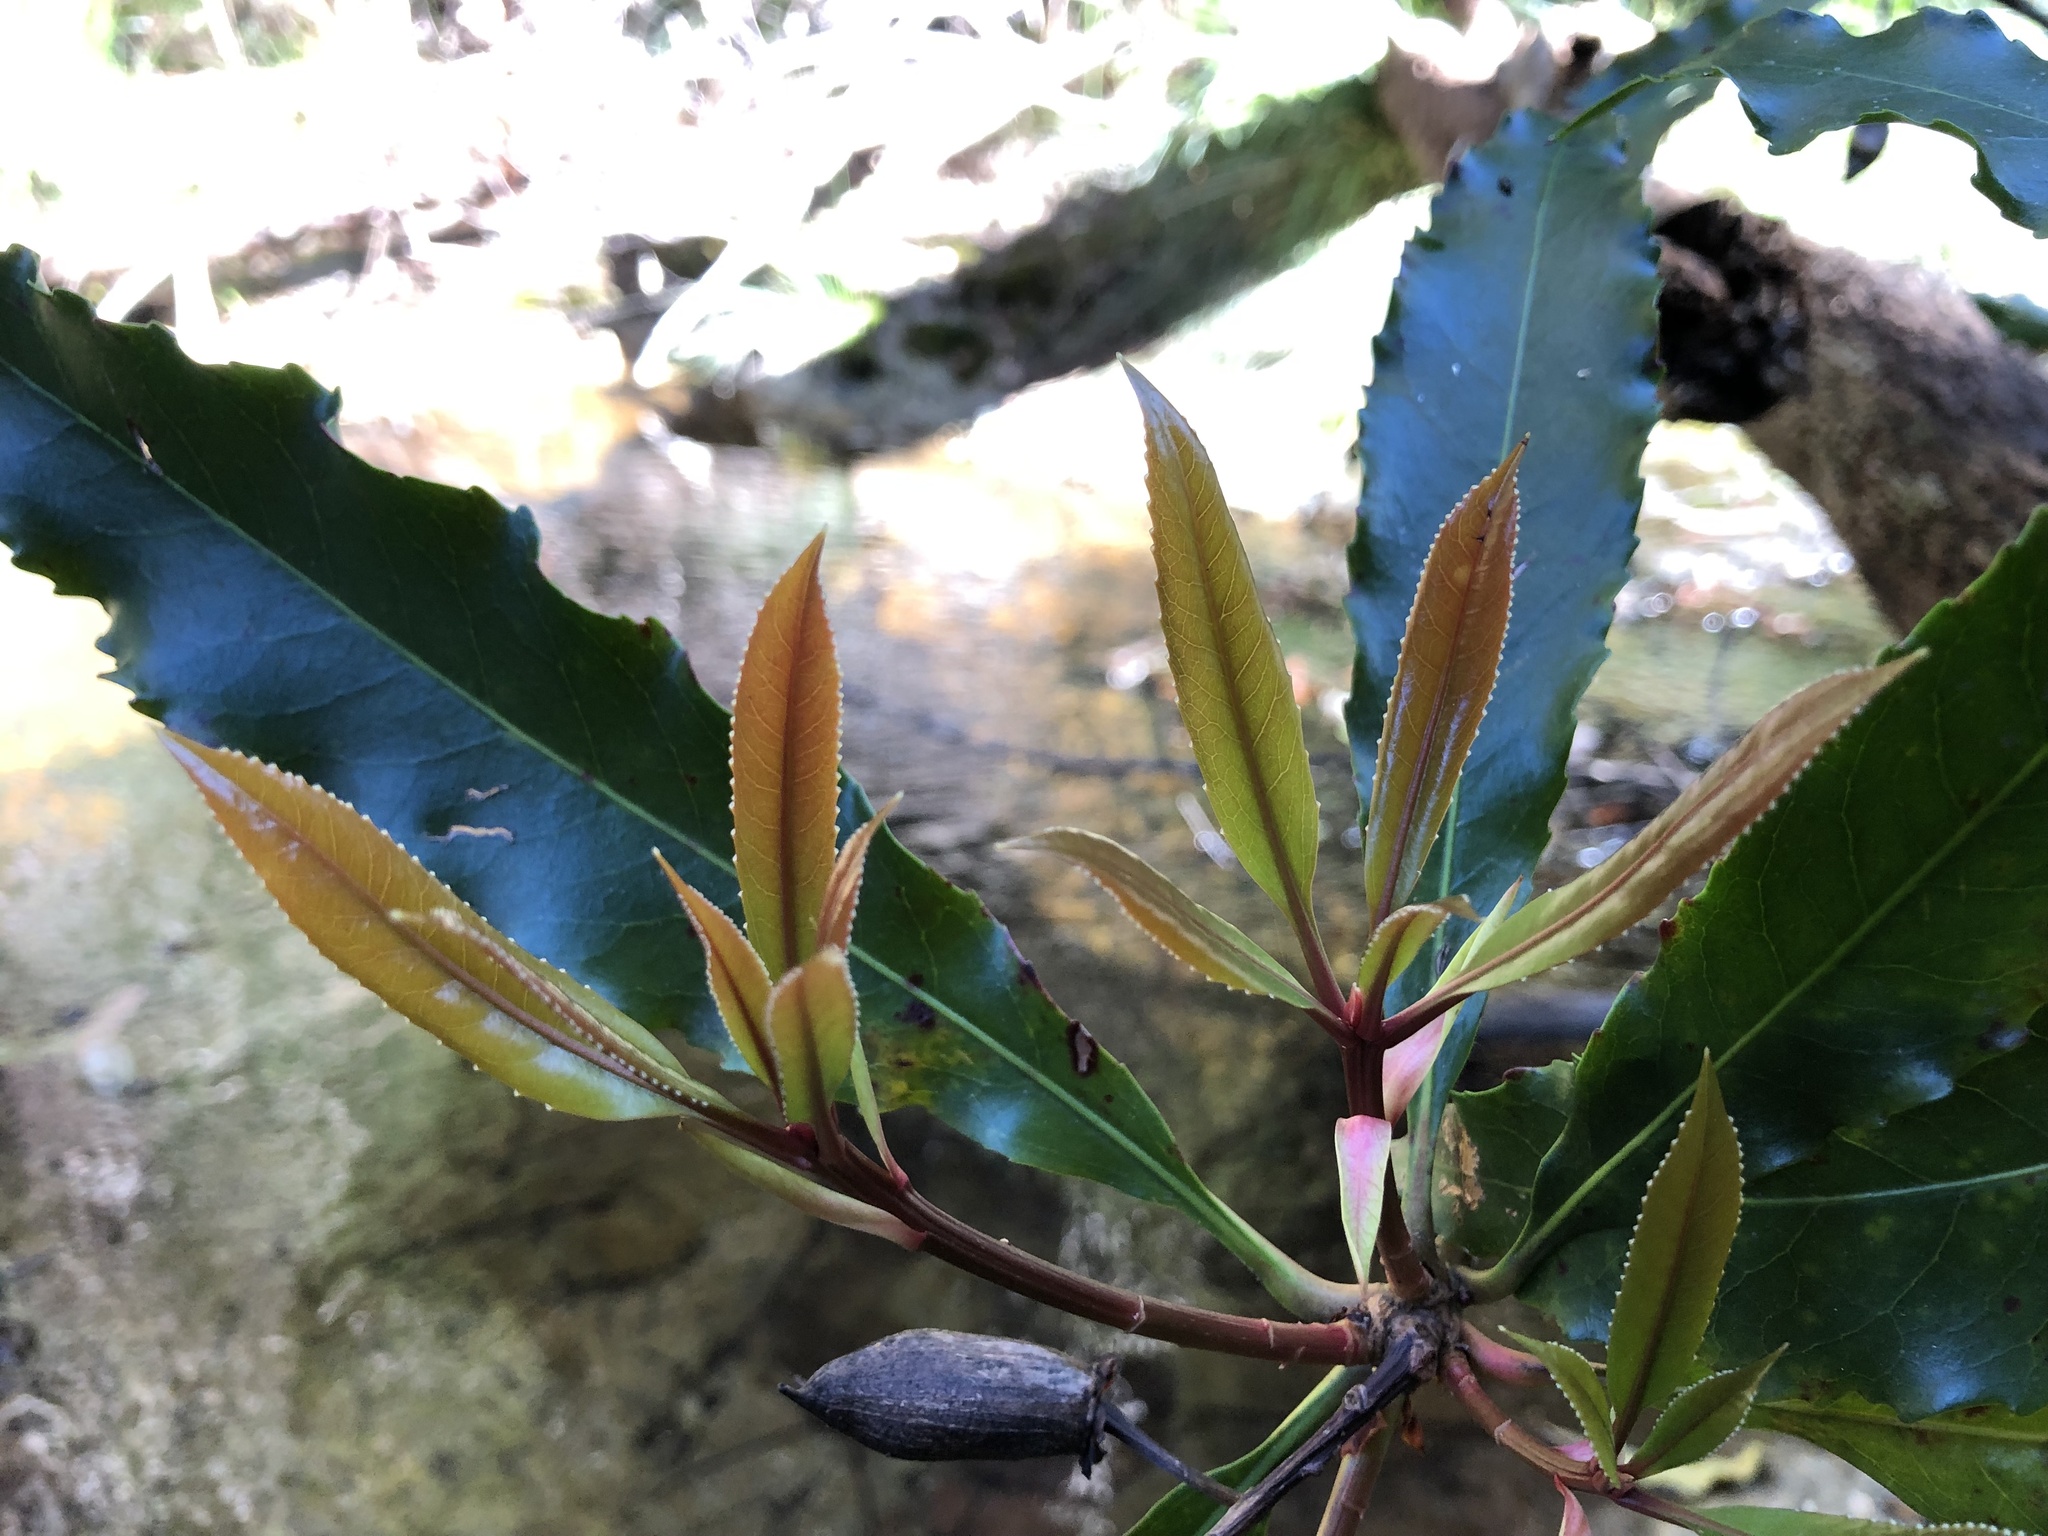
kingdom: Plantae
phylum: Tracheophyta
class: Magnoliopsida
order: Escalloniales
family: Escalloniaceae
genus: Anopterus
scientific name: Anopterus macleayanus
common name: Tasmanian-laurel
